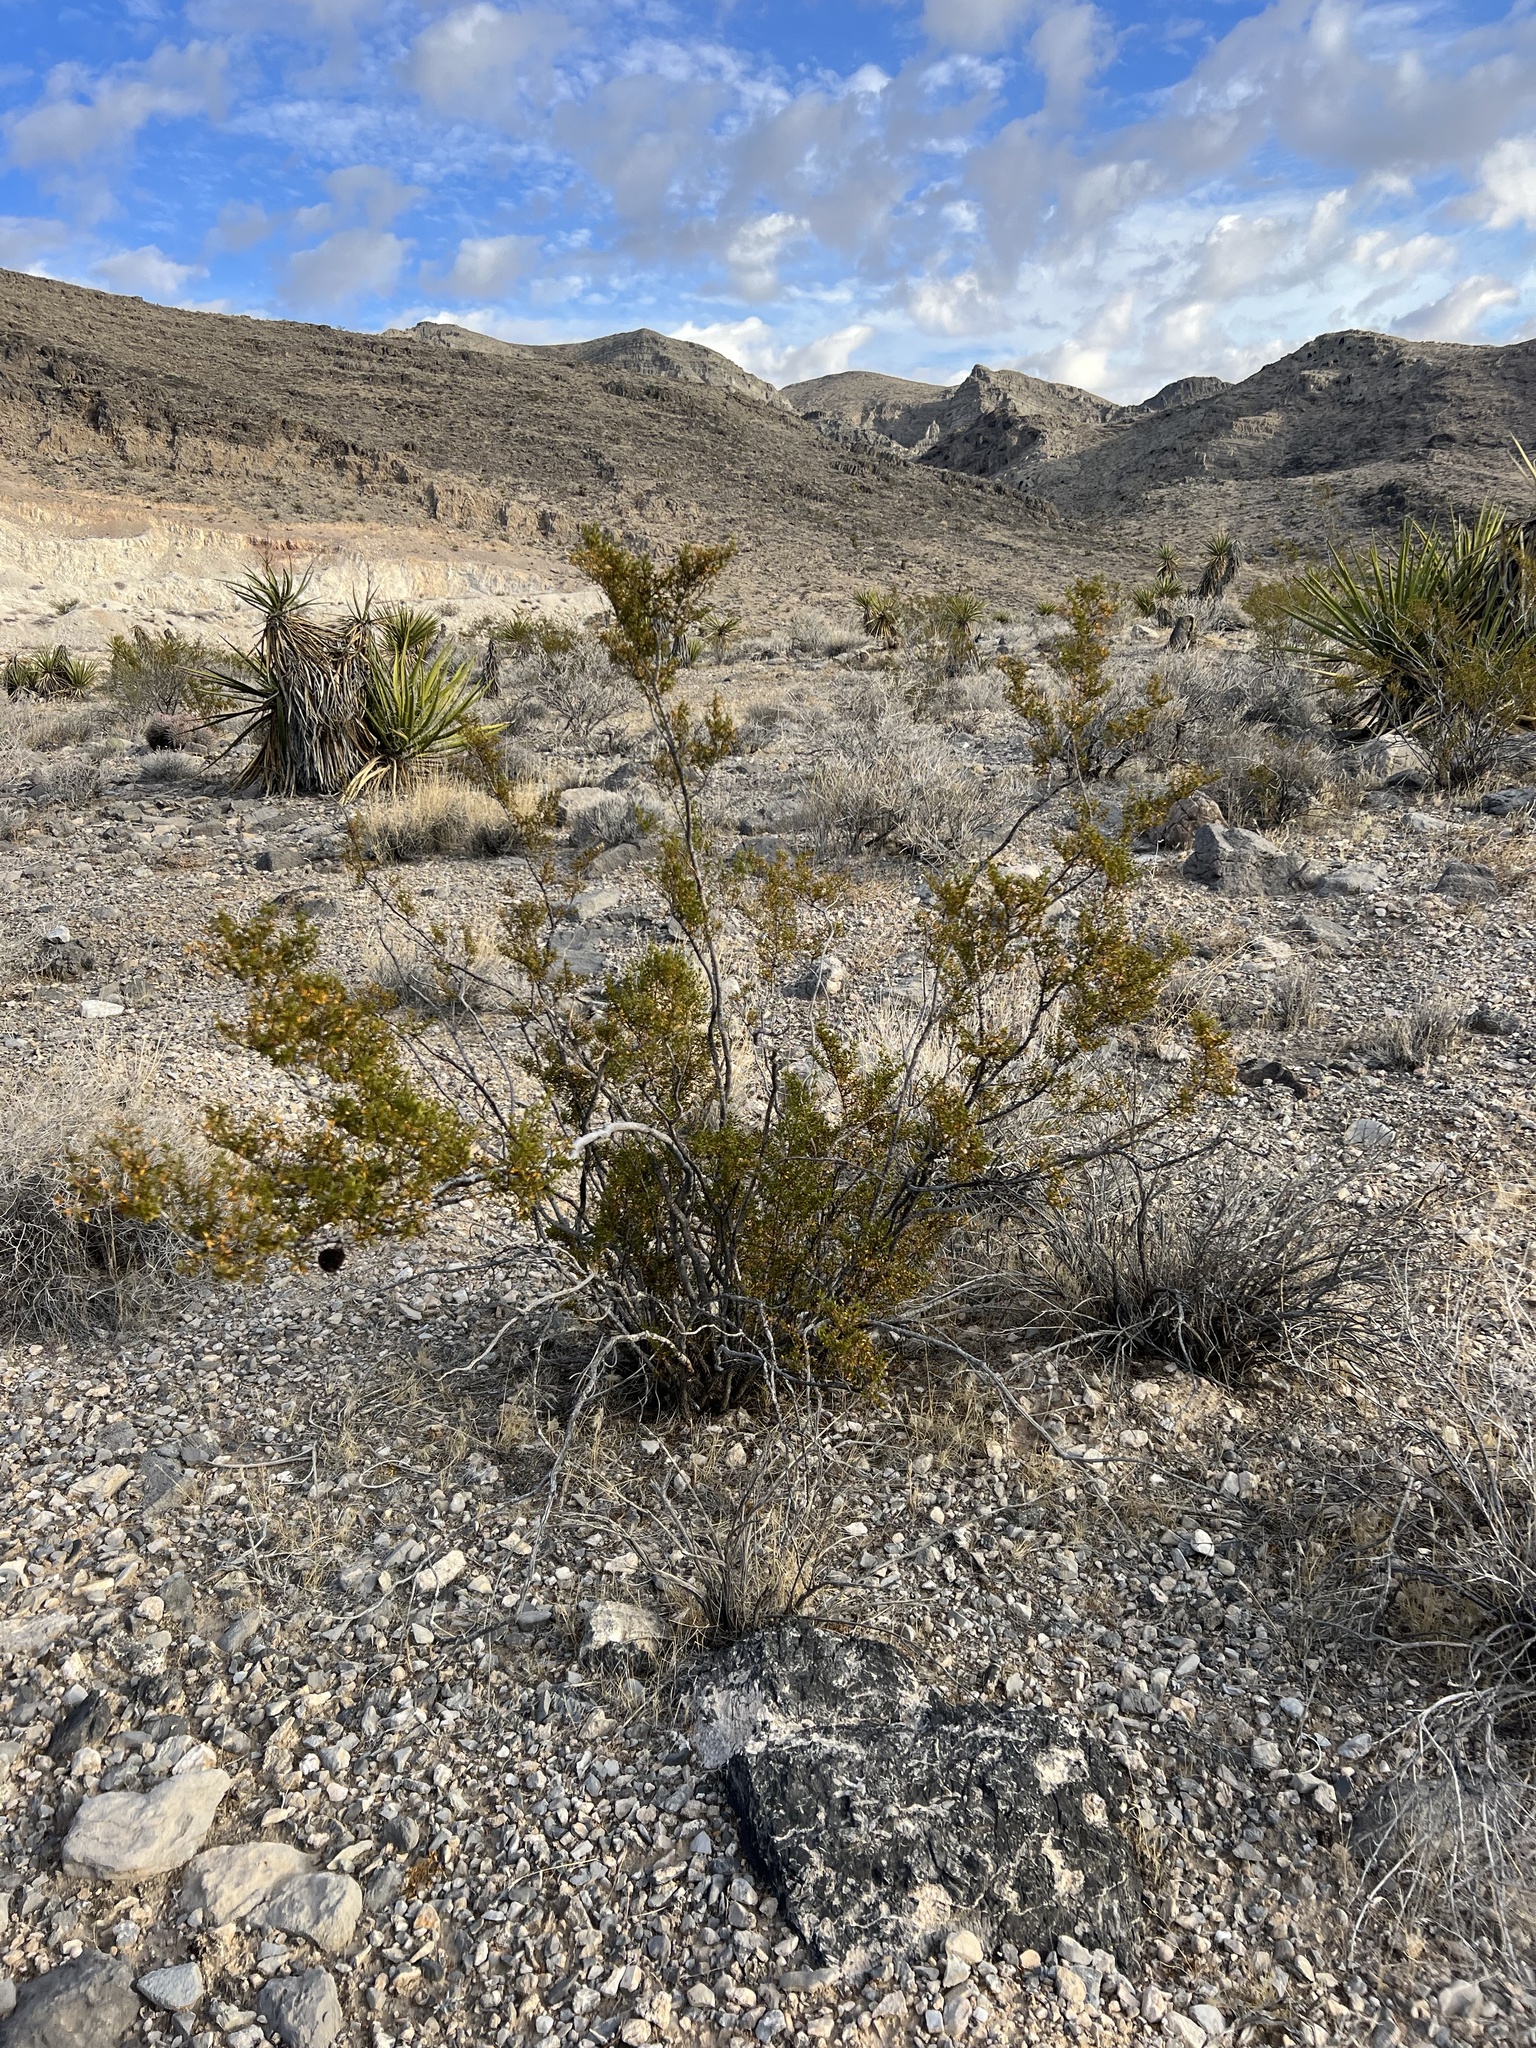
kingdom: Plantae
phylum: Tracheophyta
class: Magnoliopsida
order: Zygophyllales
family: Zygophyllaceae
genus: Larrea
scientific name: Larrea tridentata
